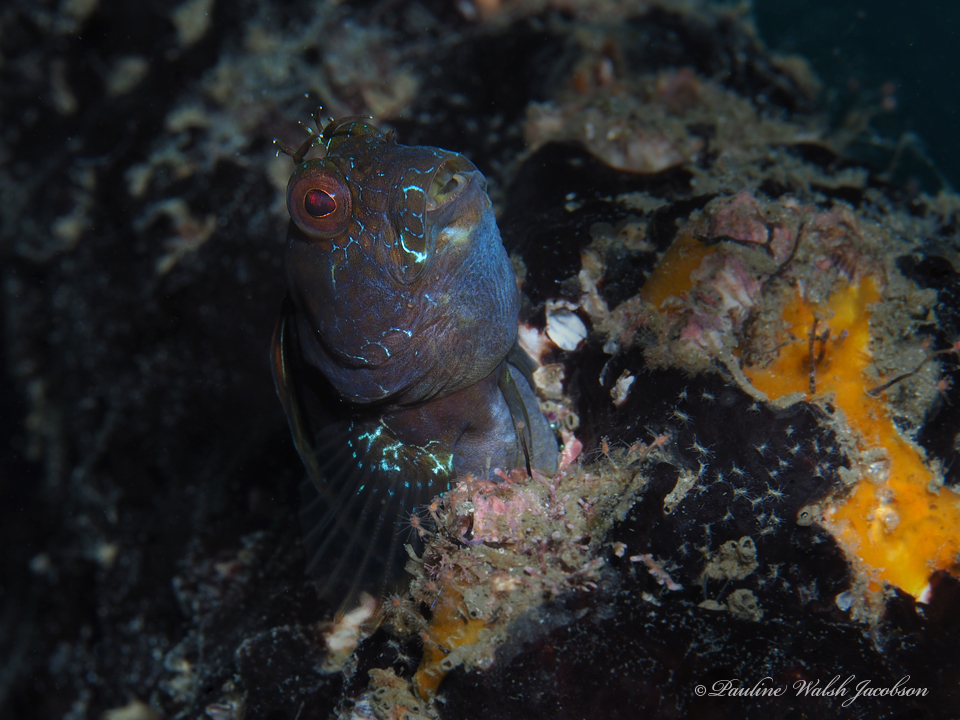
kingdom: Animalia
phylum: Chordata
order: Perciformes
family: Blenniidae
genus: Parablennius
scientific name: Parablennius marmoreus
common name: Seaweed blenny
